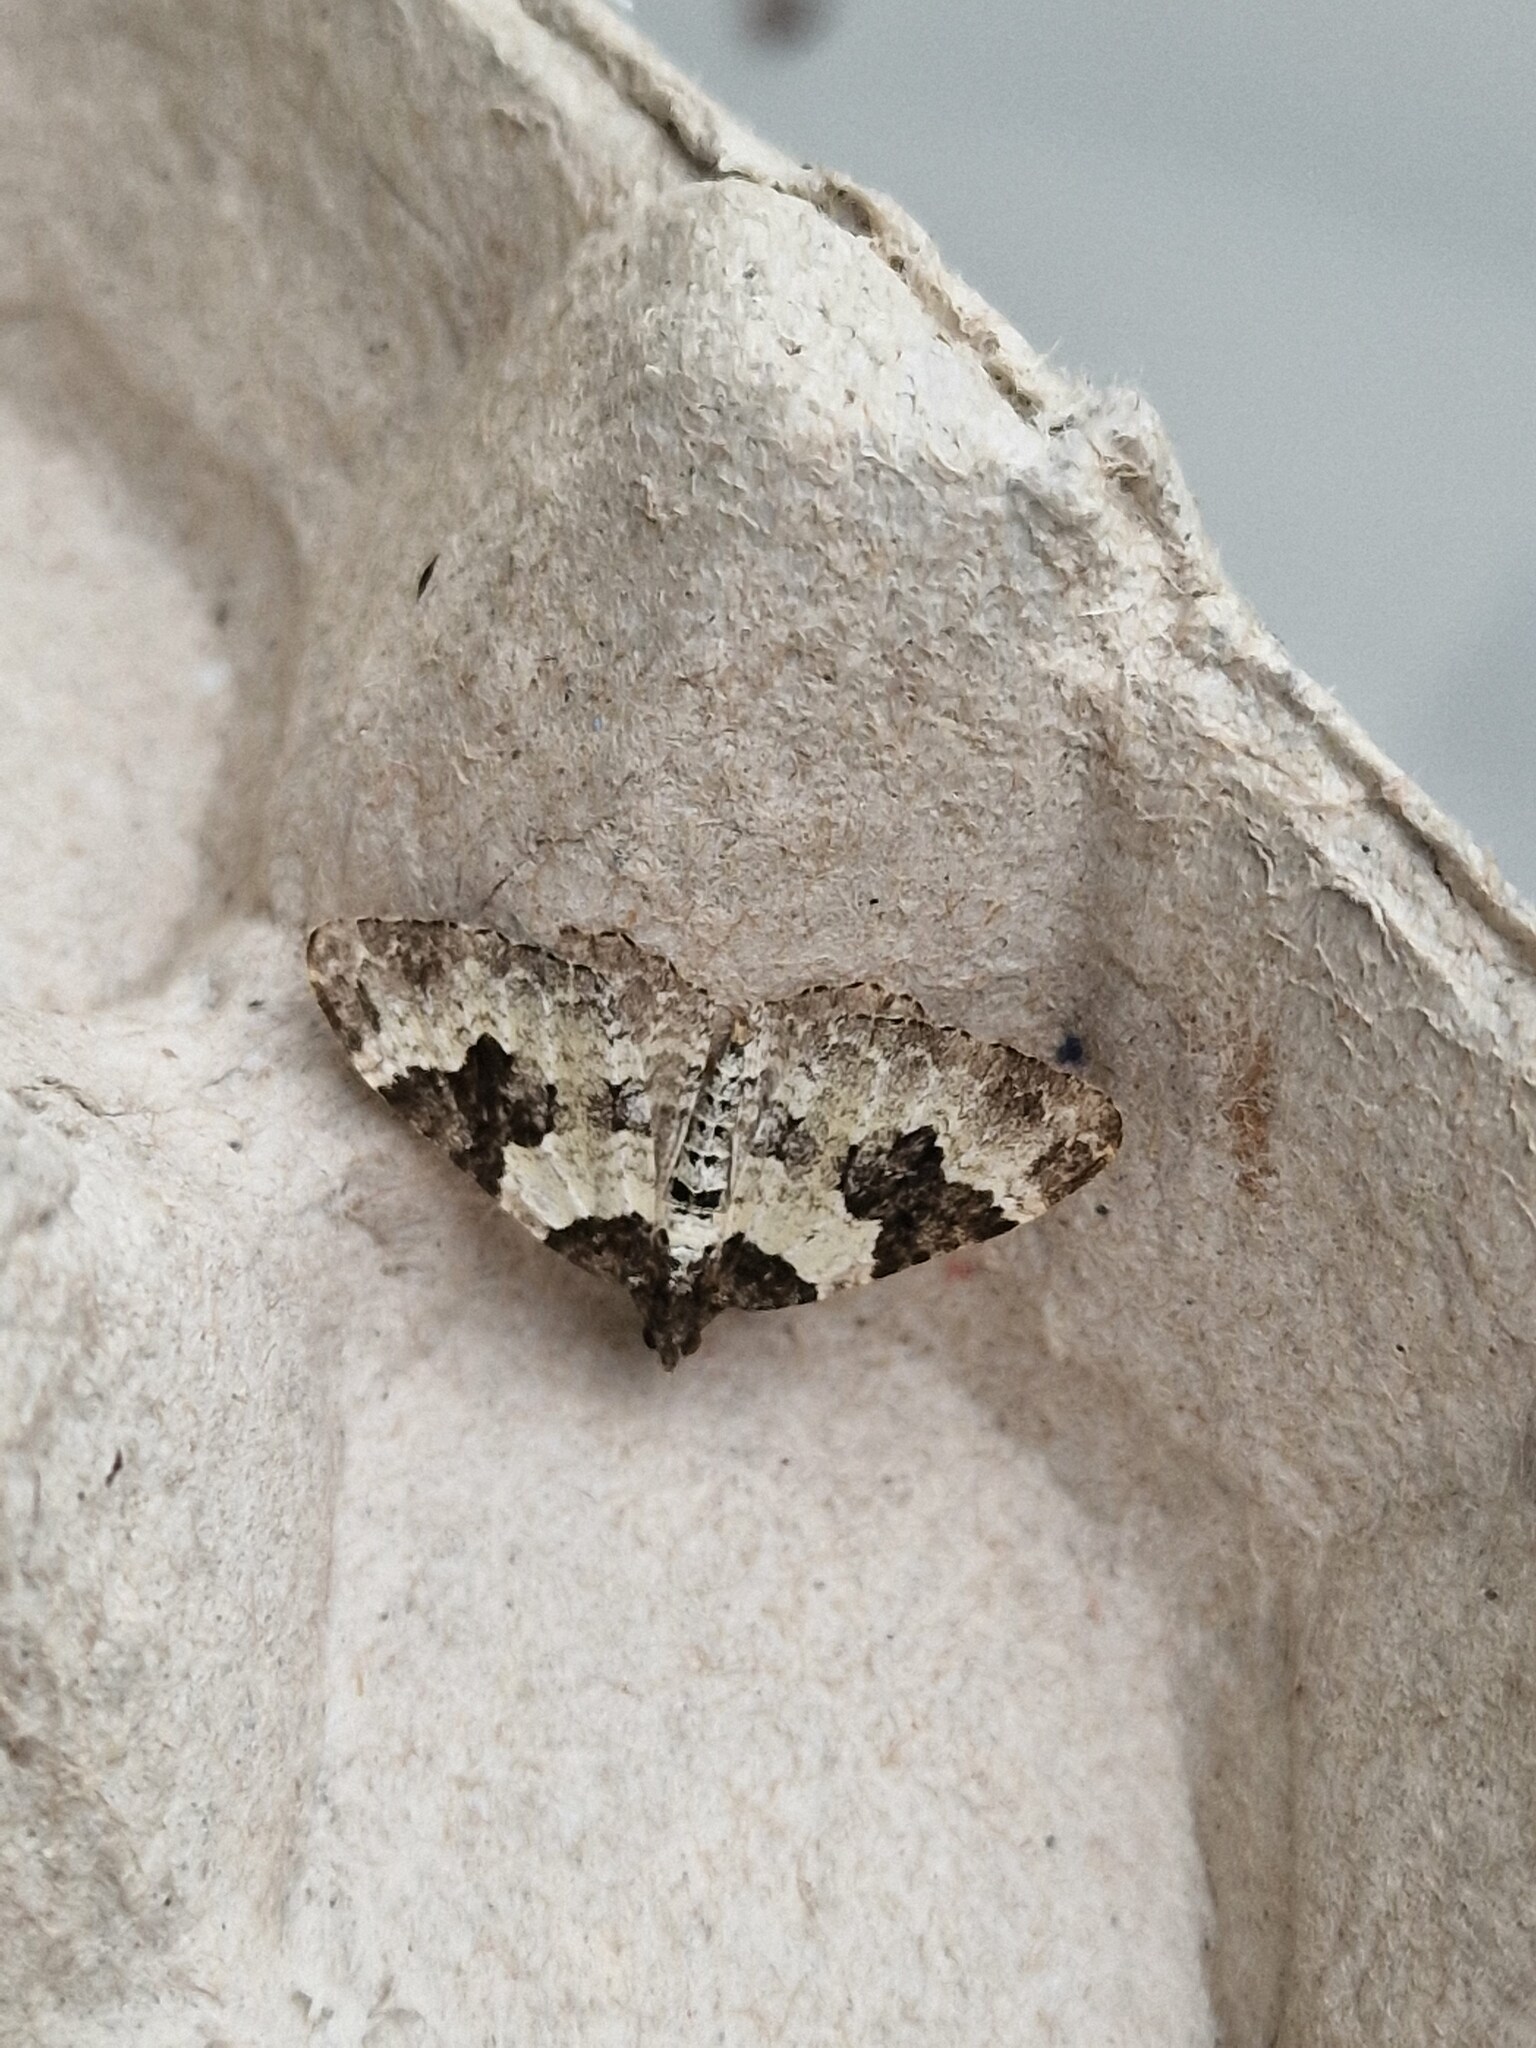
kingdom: Animalia
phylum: Arthropoda
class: Insecta
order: Lepidoptera
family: Geometridae
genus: Xanthorhoe
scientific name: Xanthorhoe fluctuata
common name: Garden carpet
